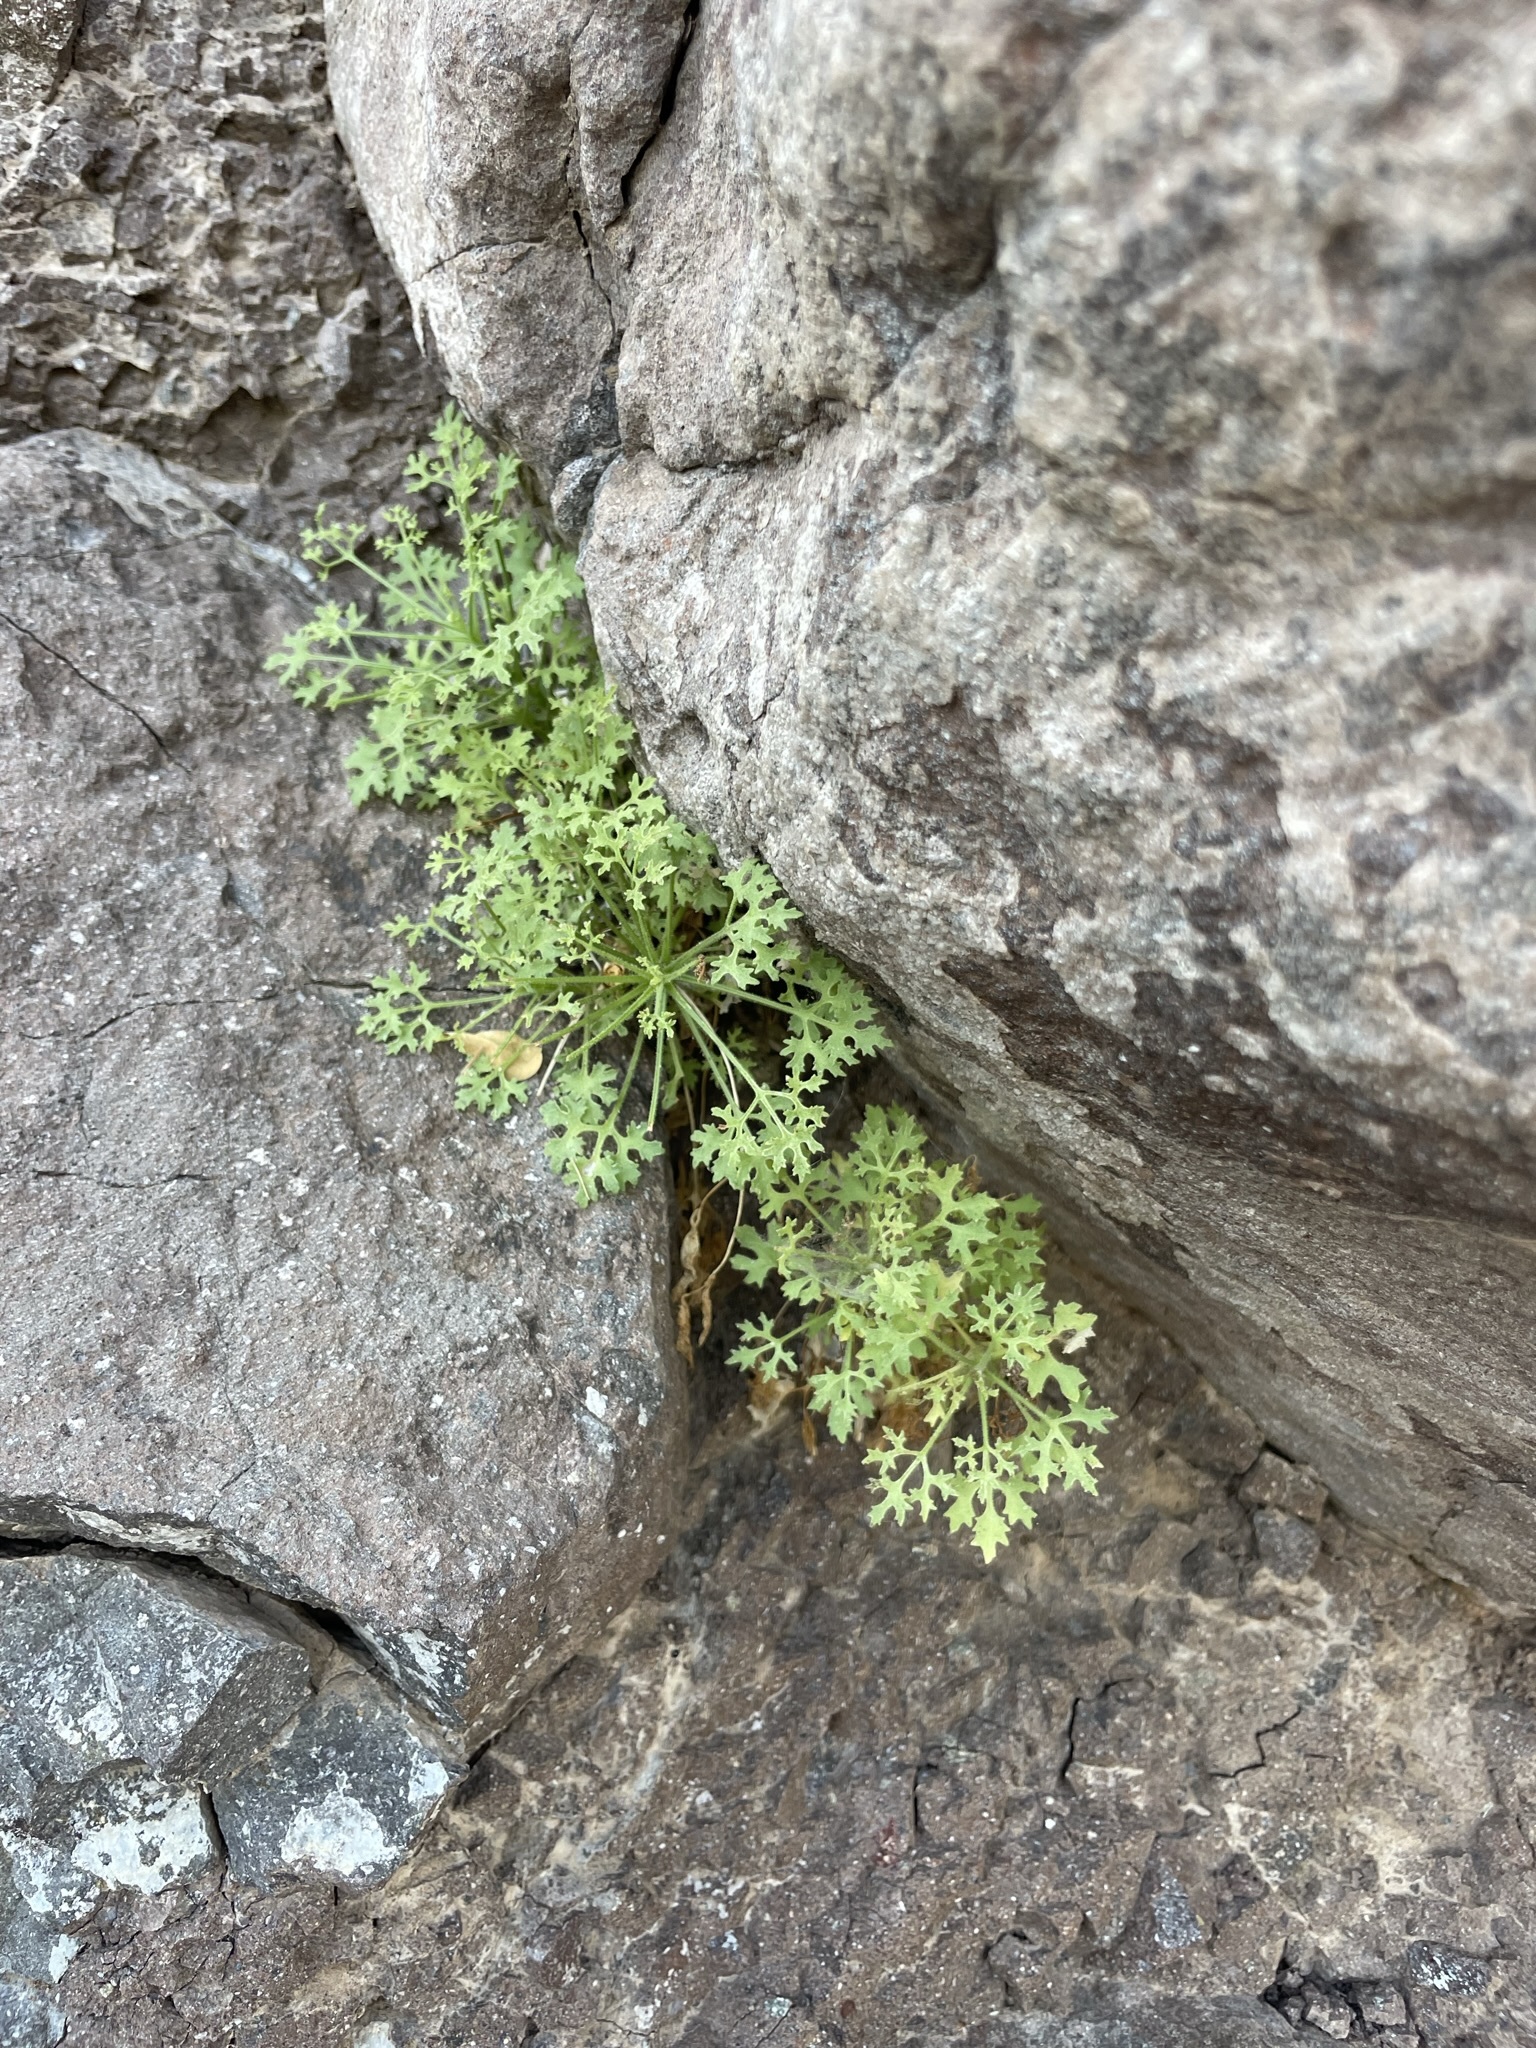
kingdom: Plantae
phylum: Tracheophyta
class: Magnoliopsida
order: Asterales
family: Asteraceae
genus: Hofmeisteria
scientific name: Hofmeisteria fasciculata
